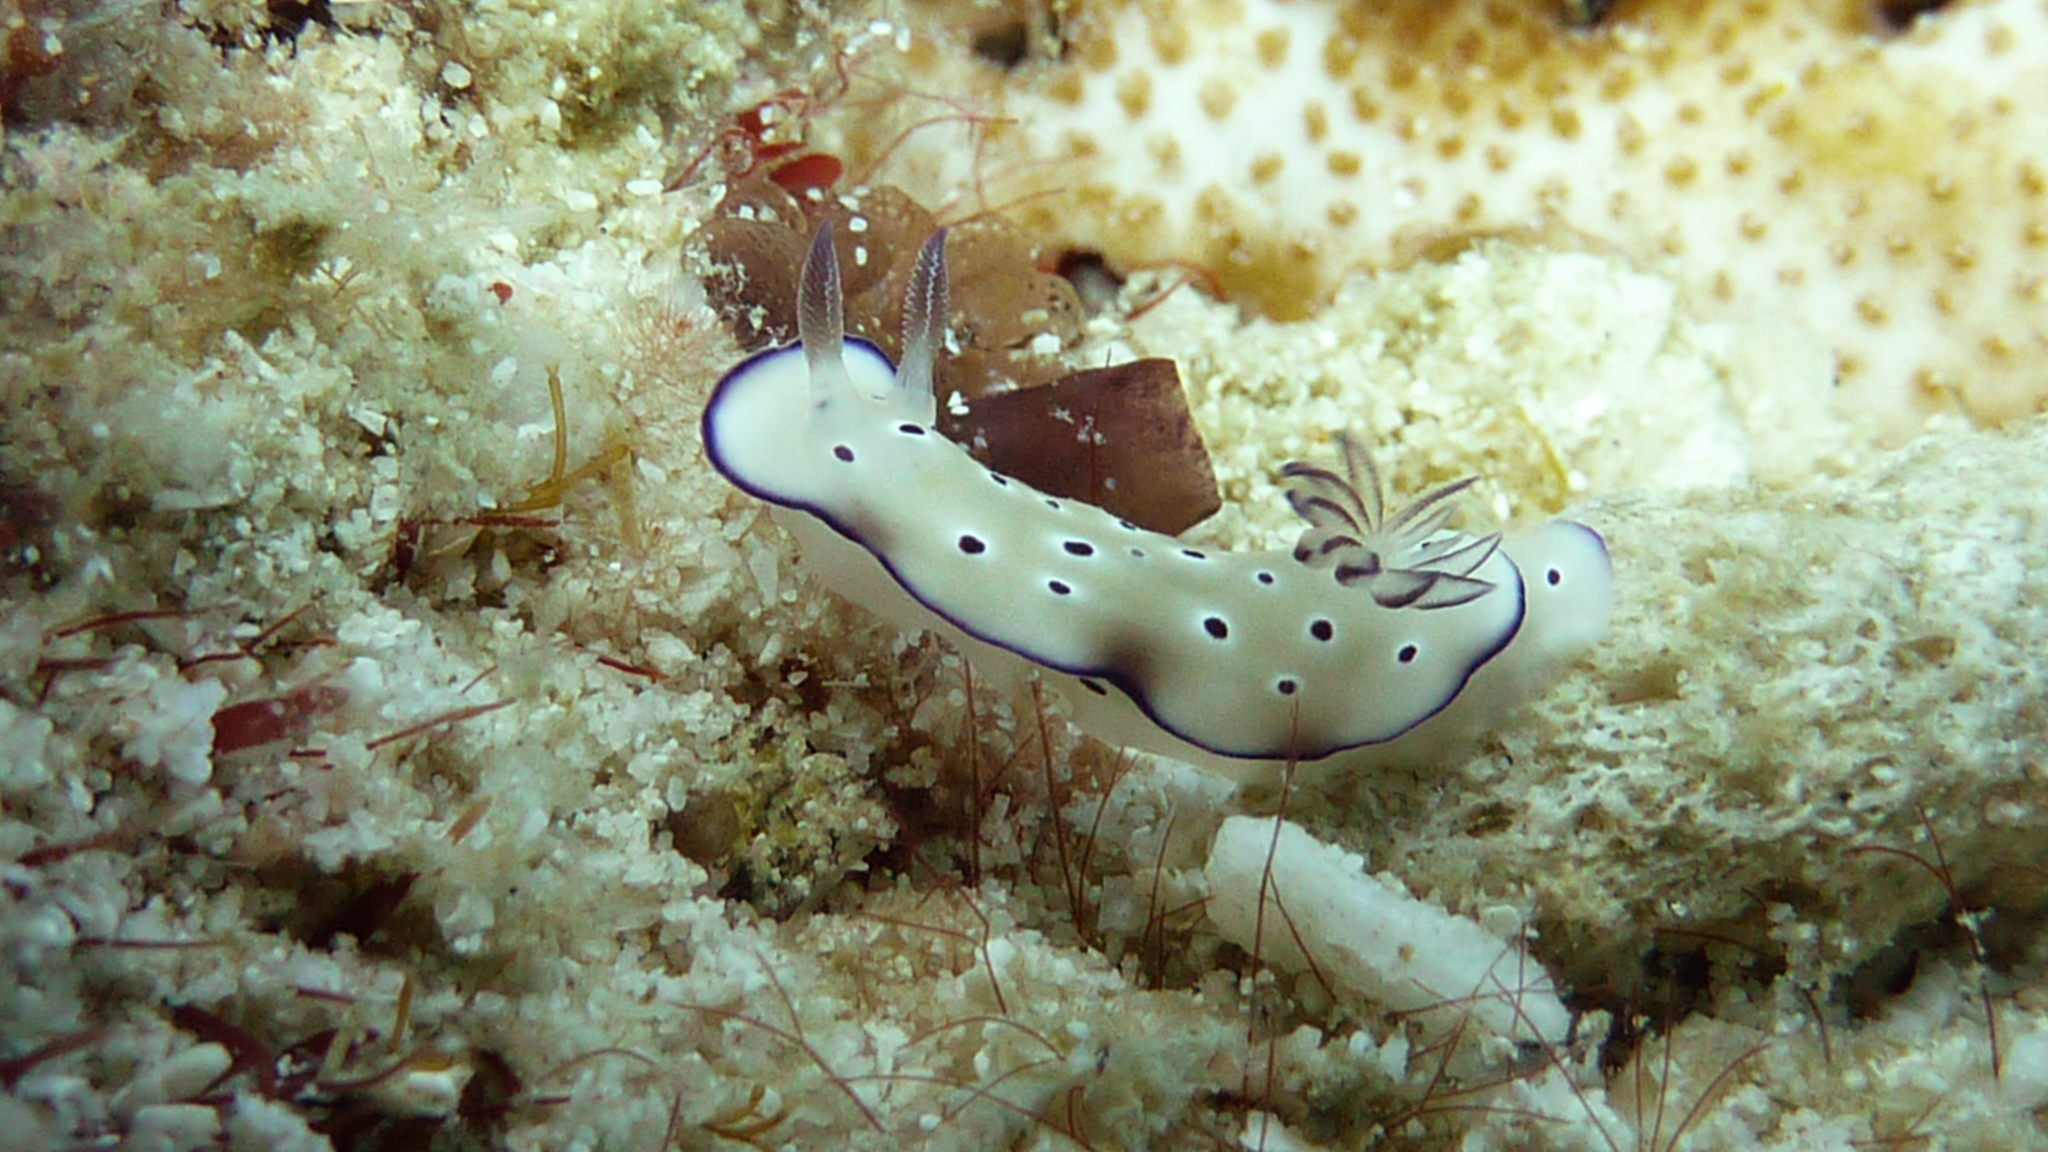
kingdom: Animalia
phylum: Mollusca
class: Gastropoda
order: Nudibranchia
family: Chromodorididae
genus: Hypselodoris
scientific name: Hypselodoris tryoni
